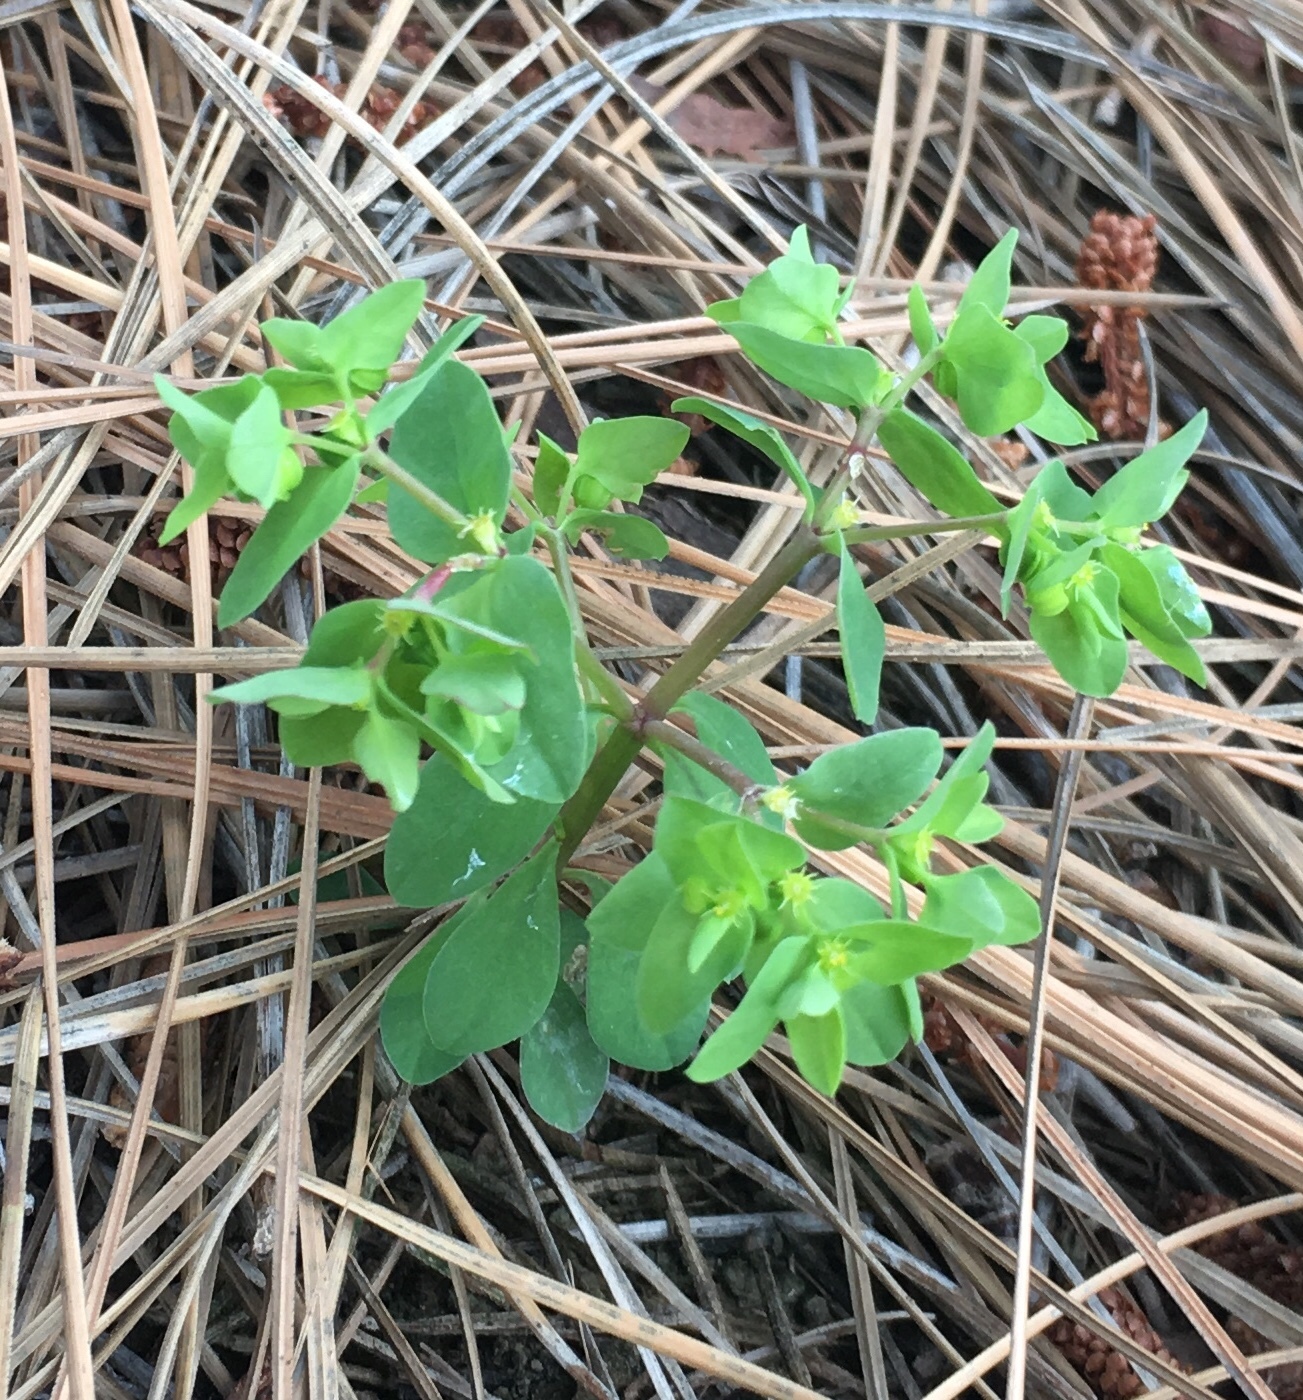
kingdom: Plantae
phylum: Tracheophyta
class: Magnoliopsida
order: Malpighiales
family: Euphorbiaceae
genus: Euphorbia
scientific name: Euphorbia peplus
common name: Petty spurge
